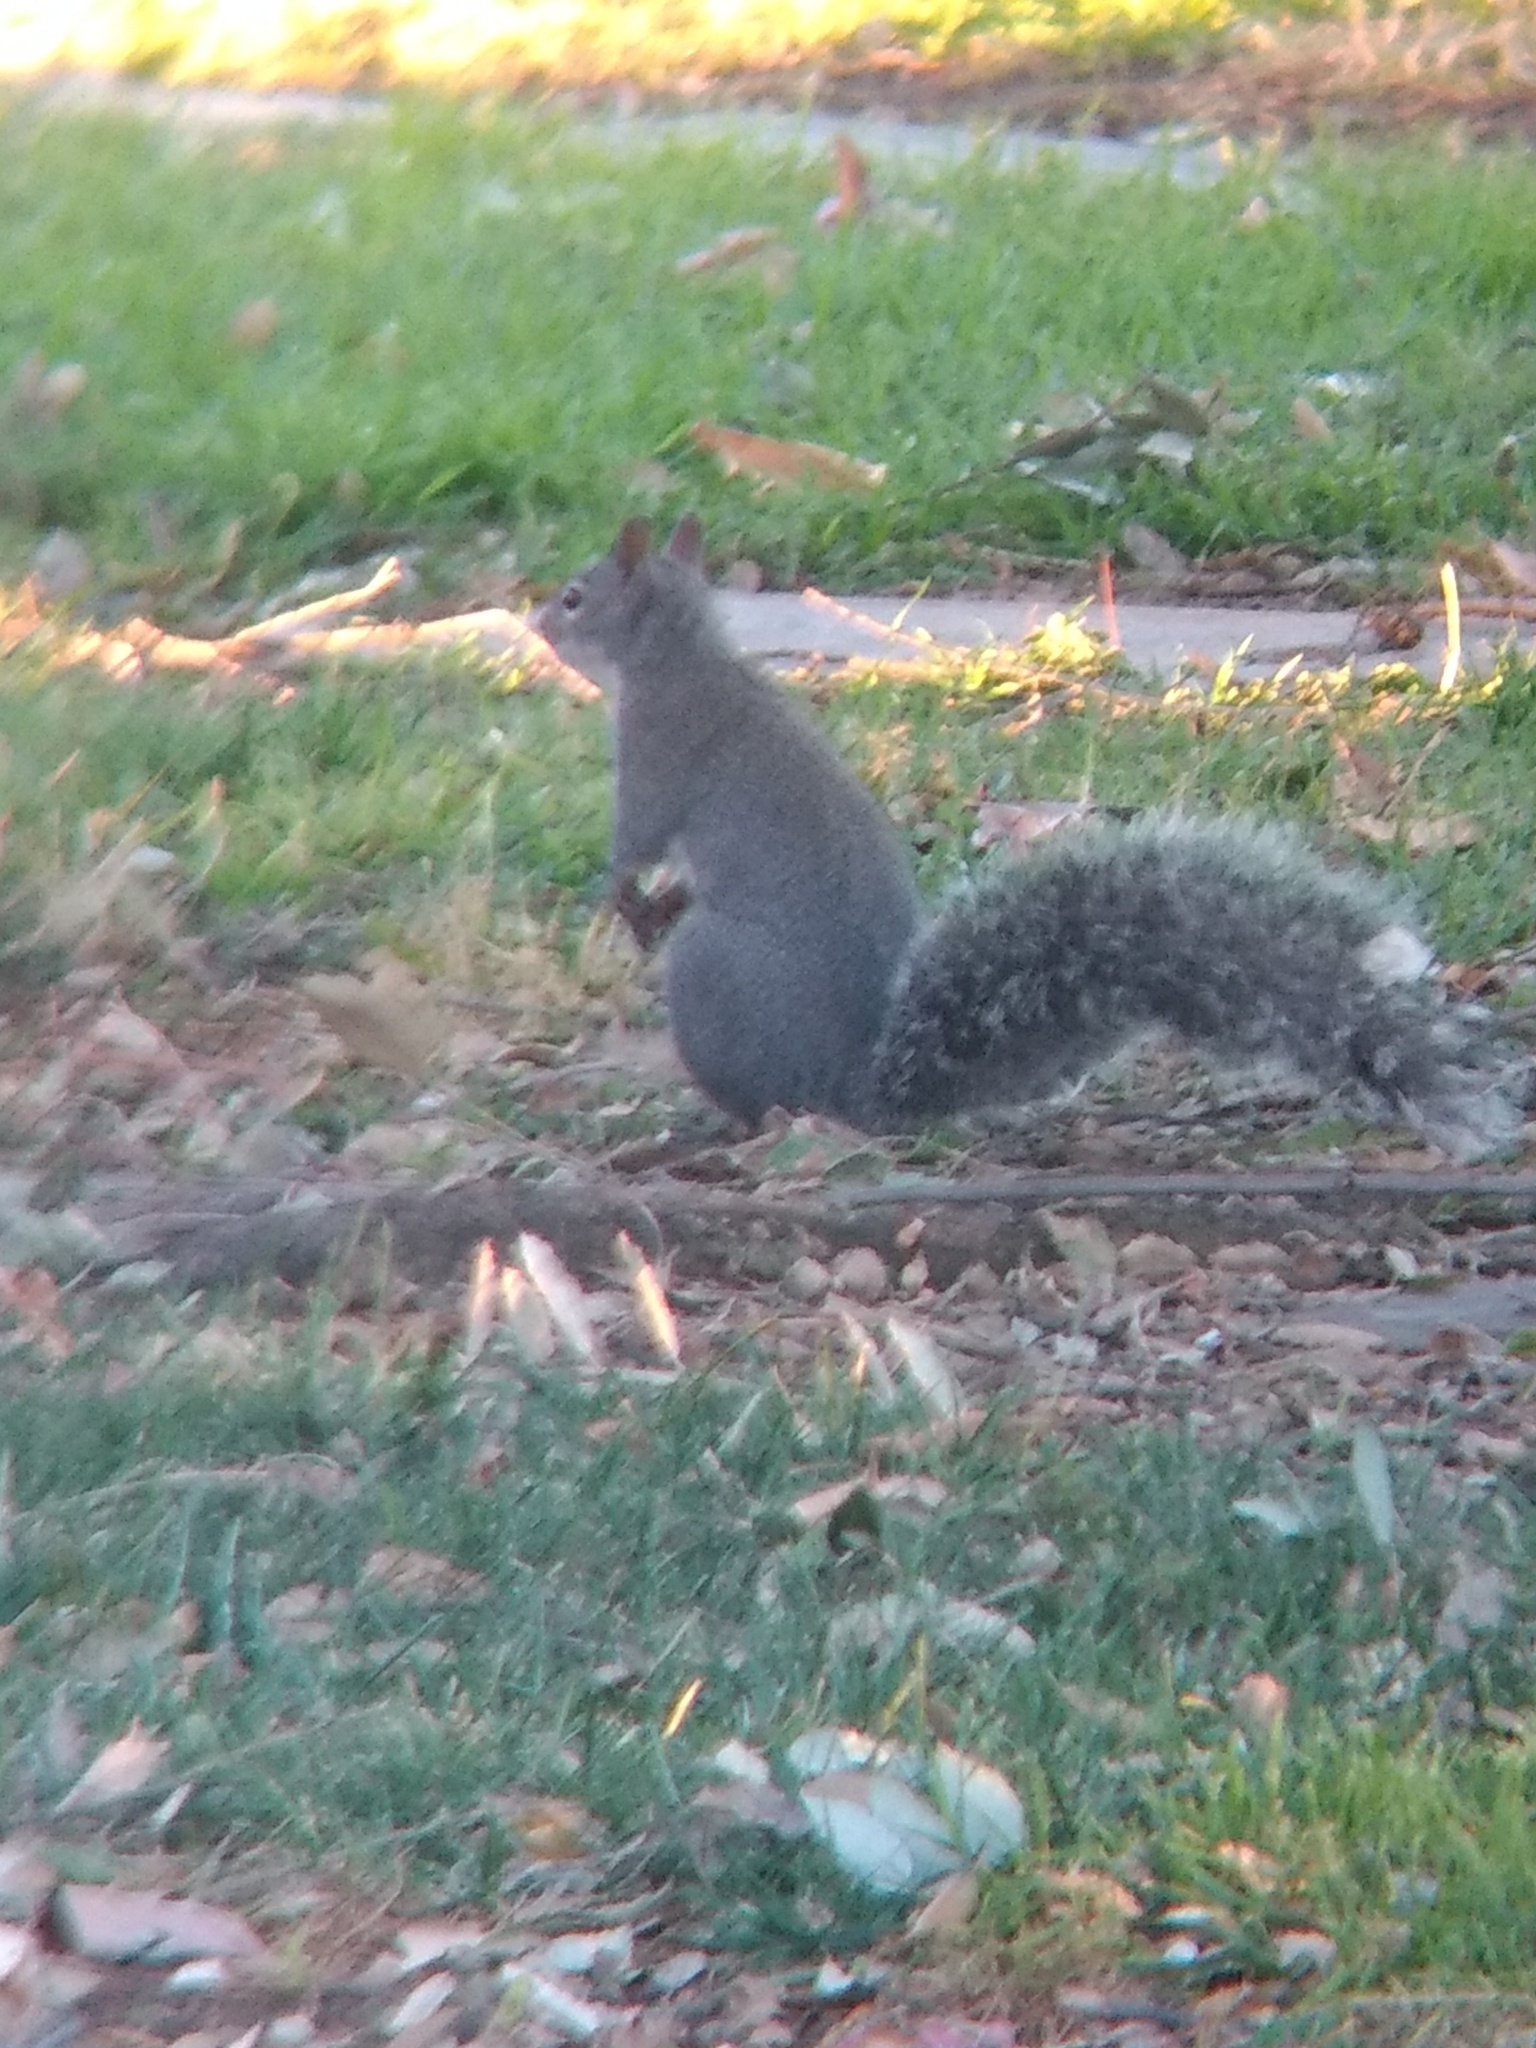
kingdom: Animalia
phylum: Chordata
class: Mammalia
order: Rodentia
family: Sciuridae
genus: Sciurus
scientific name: Sciurus griseus
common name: Western gray squirrel
